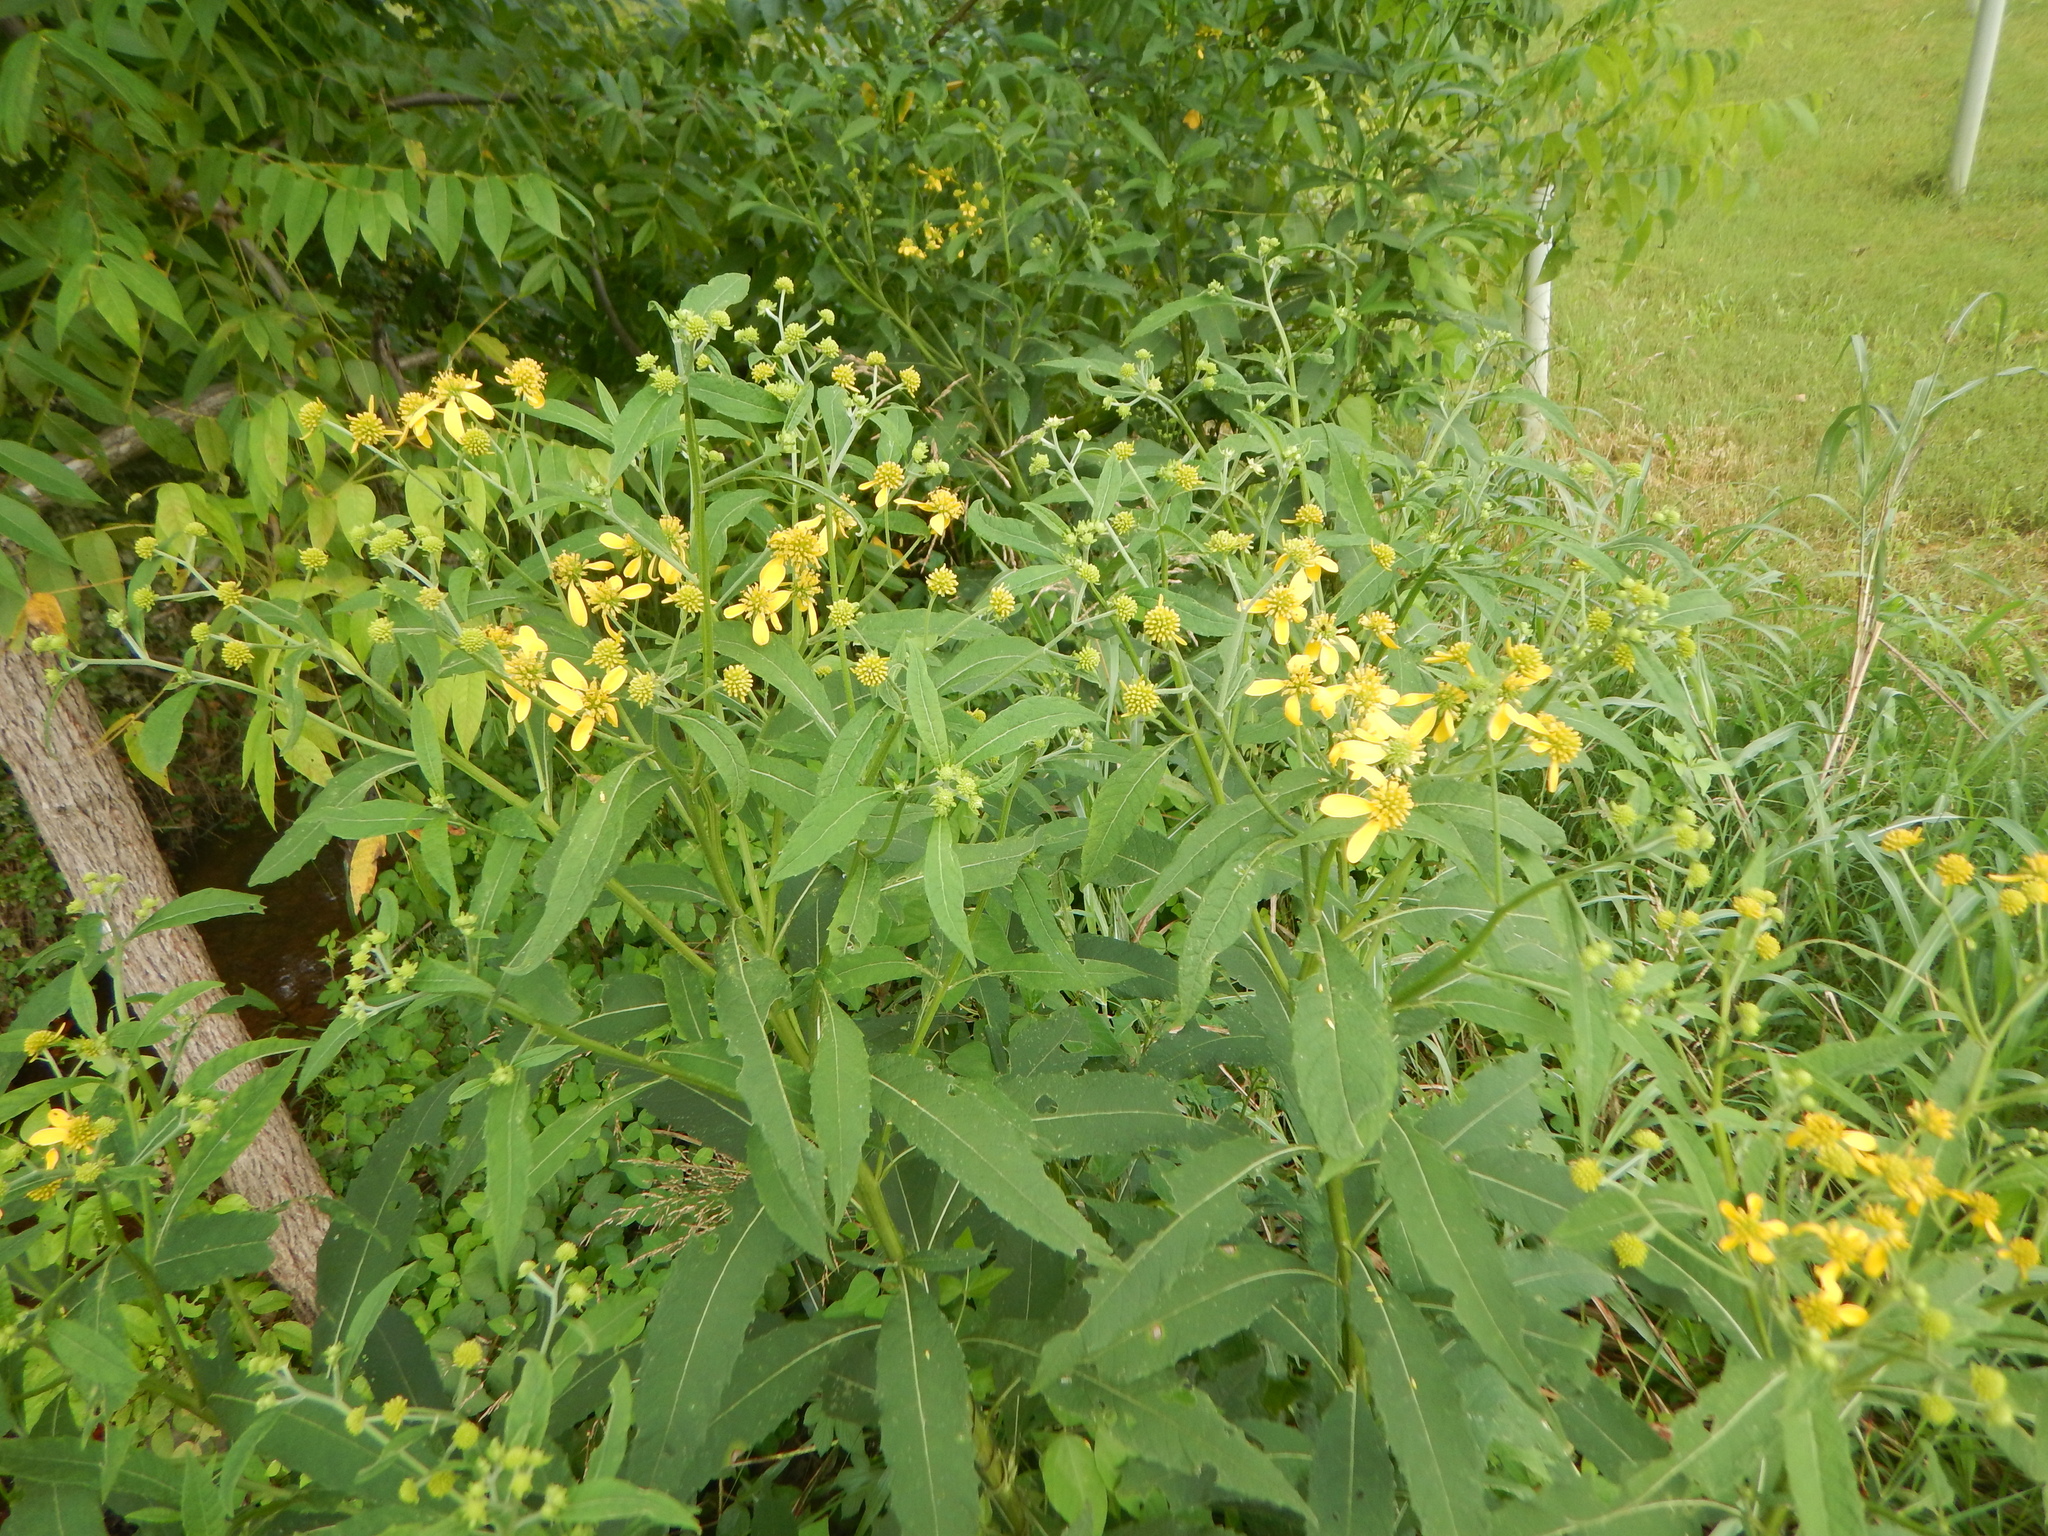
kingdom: Plantae
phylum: Tracheophyta
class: Magnoliopsida
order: Asterales
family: Asteraceae
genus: Verbesina
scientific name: Verbesina alternifolia
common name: Wingstem
